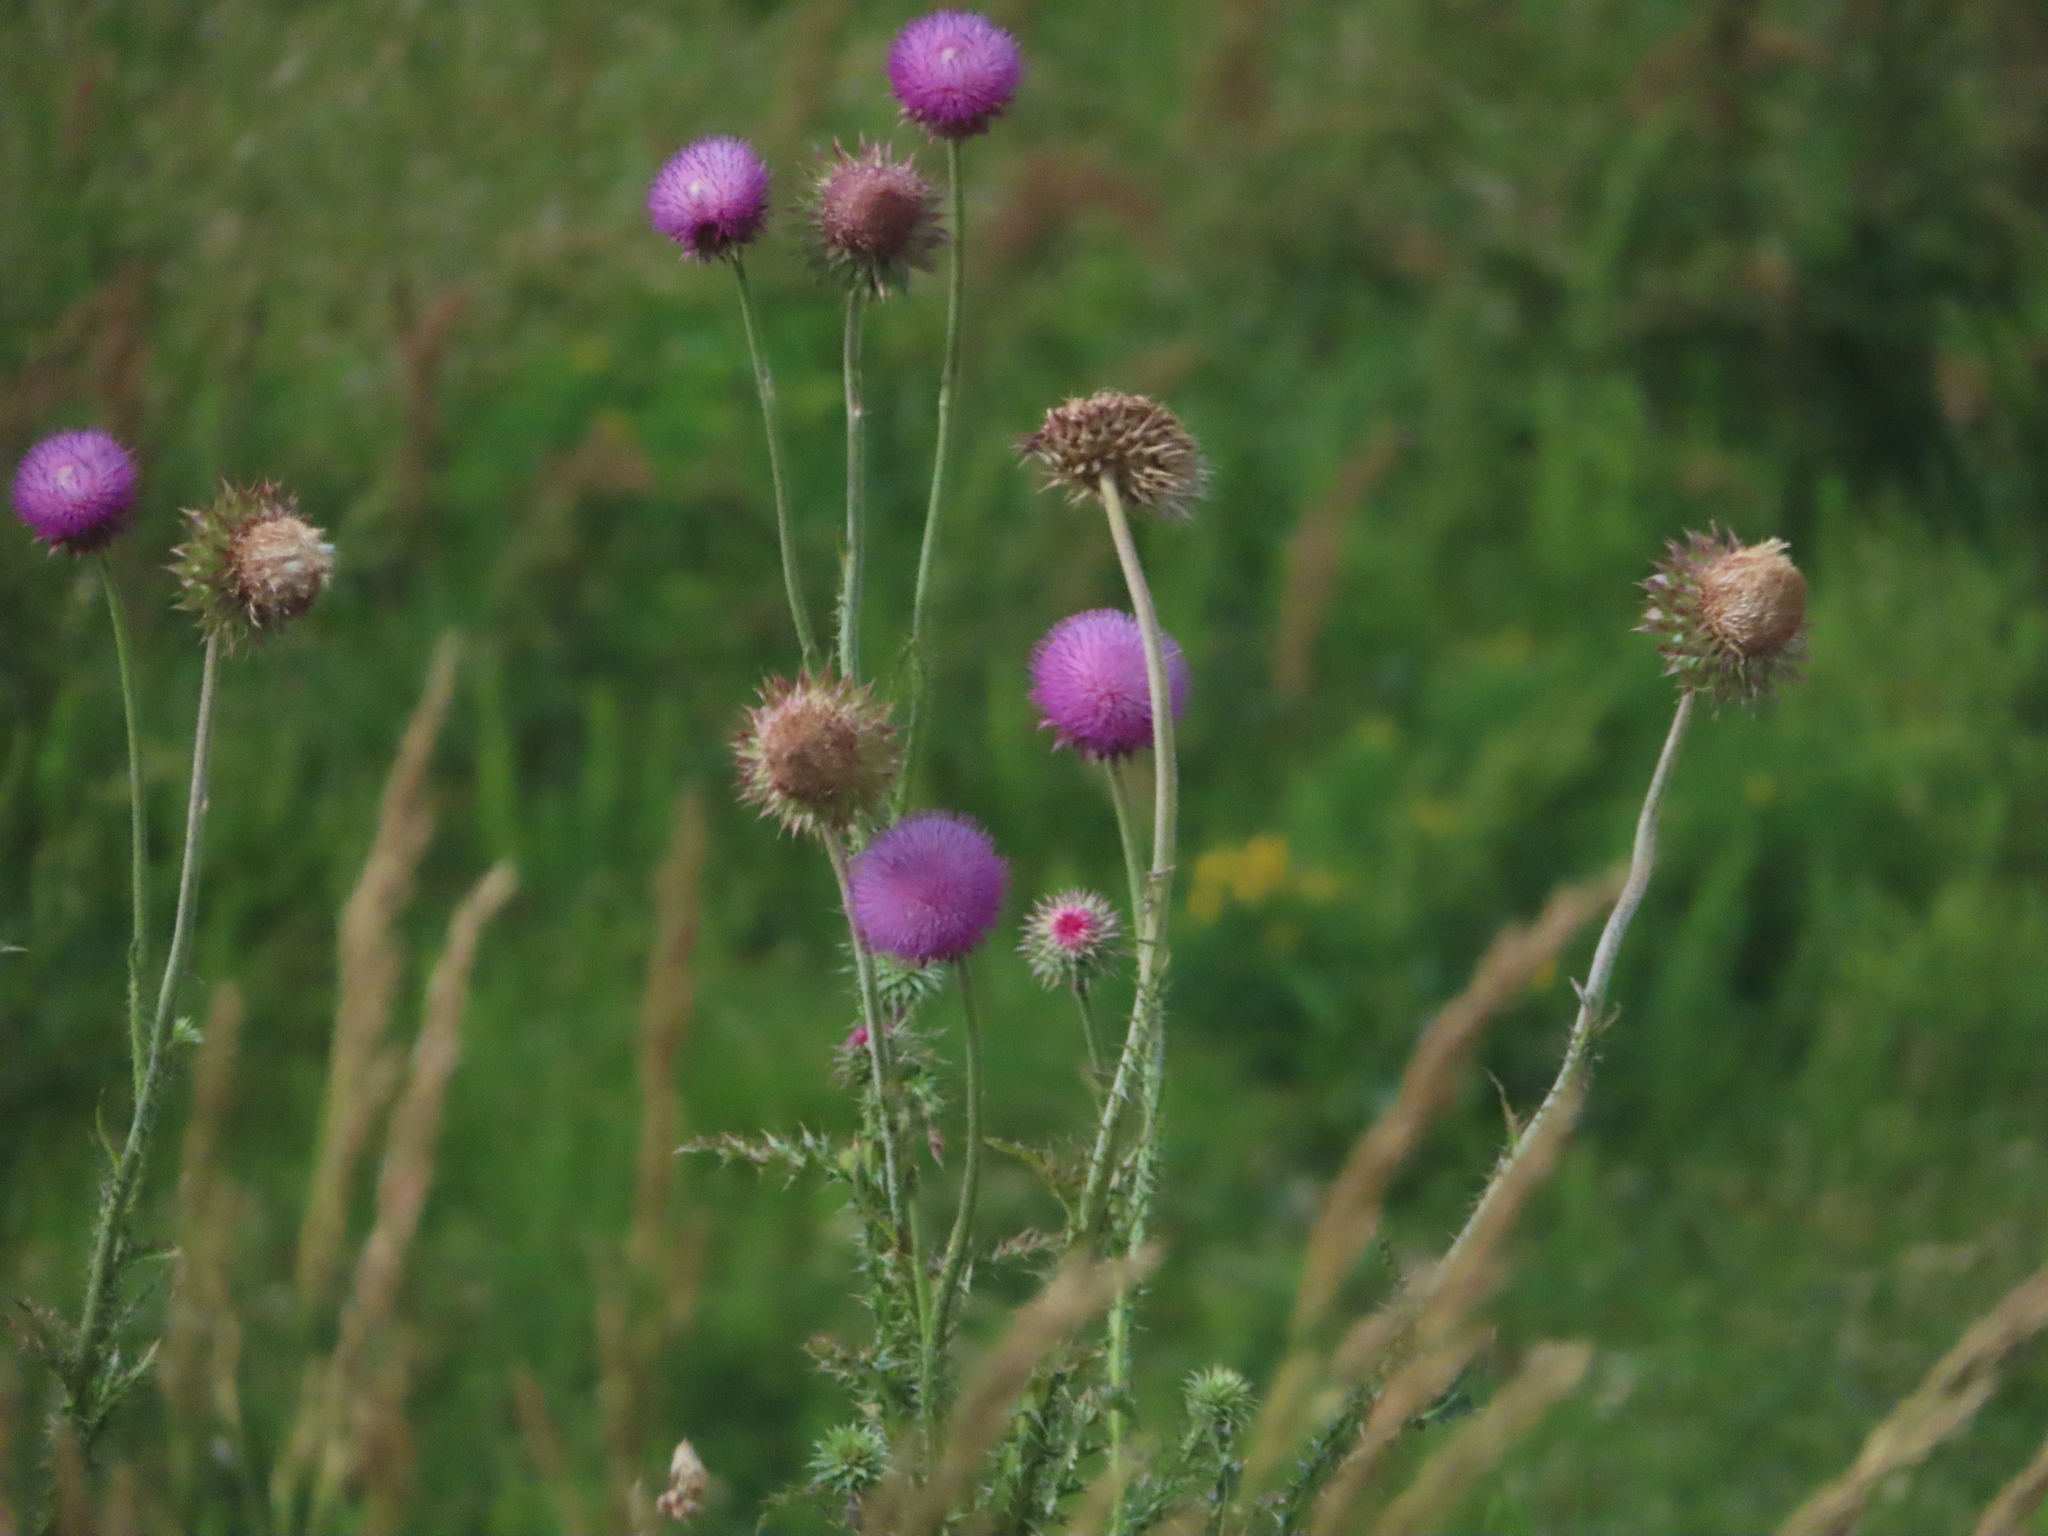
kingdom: Plantae
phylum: Tracheophyta
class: Magnoliopsida
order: Asterales
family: Asteraceae
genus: Carduus
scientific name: Carduus nutans
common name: Musk thistle
